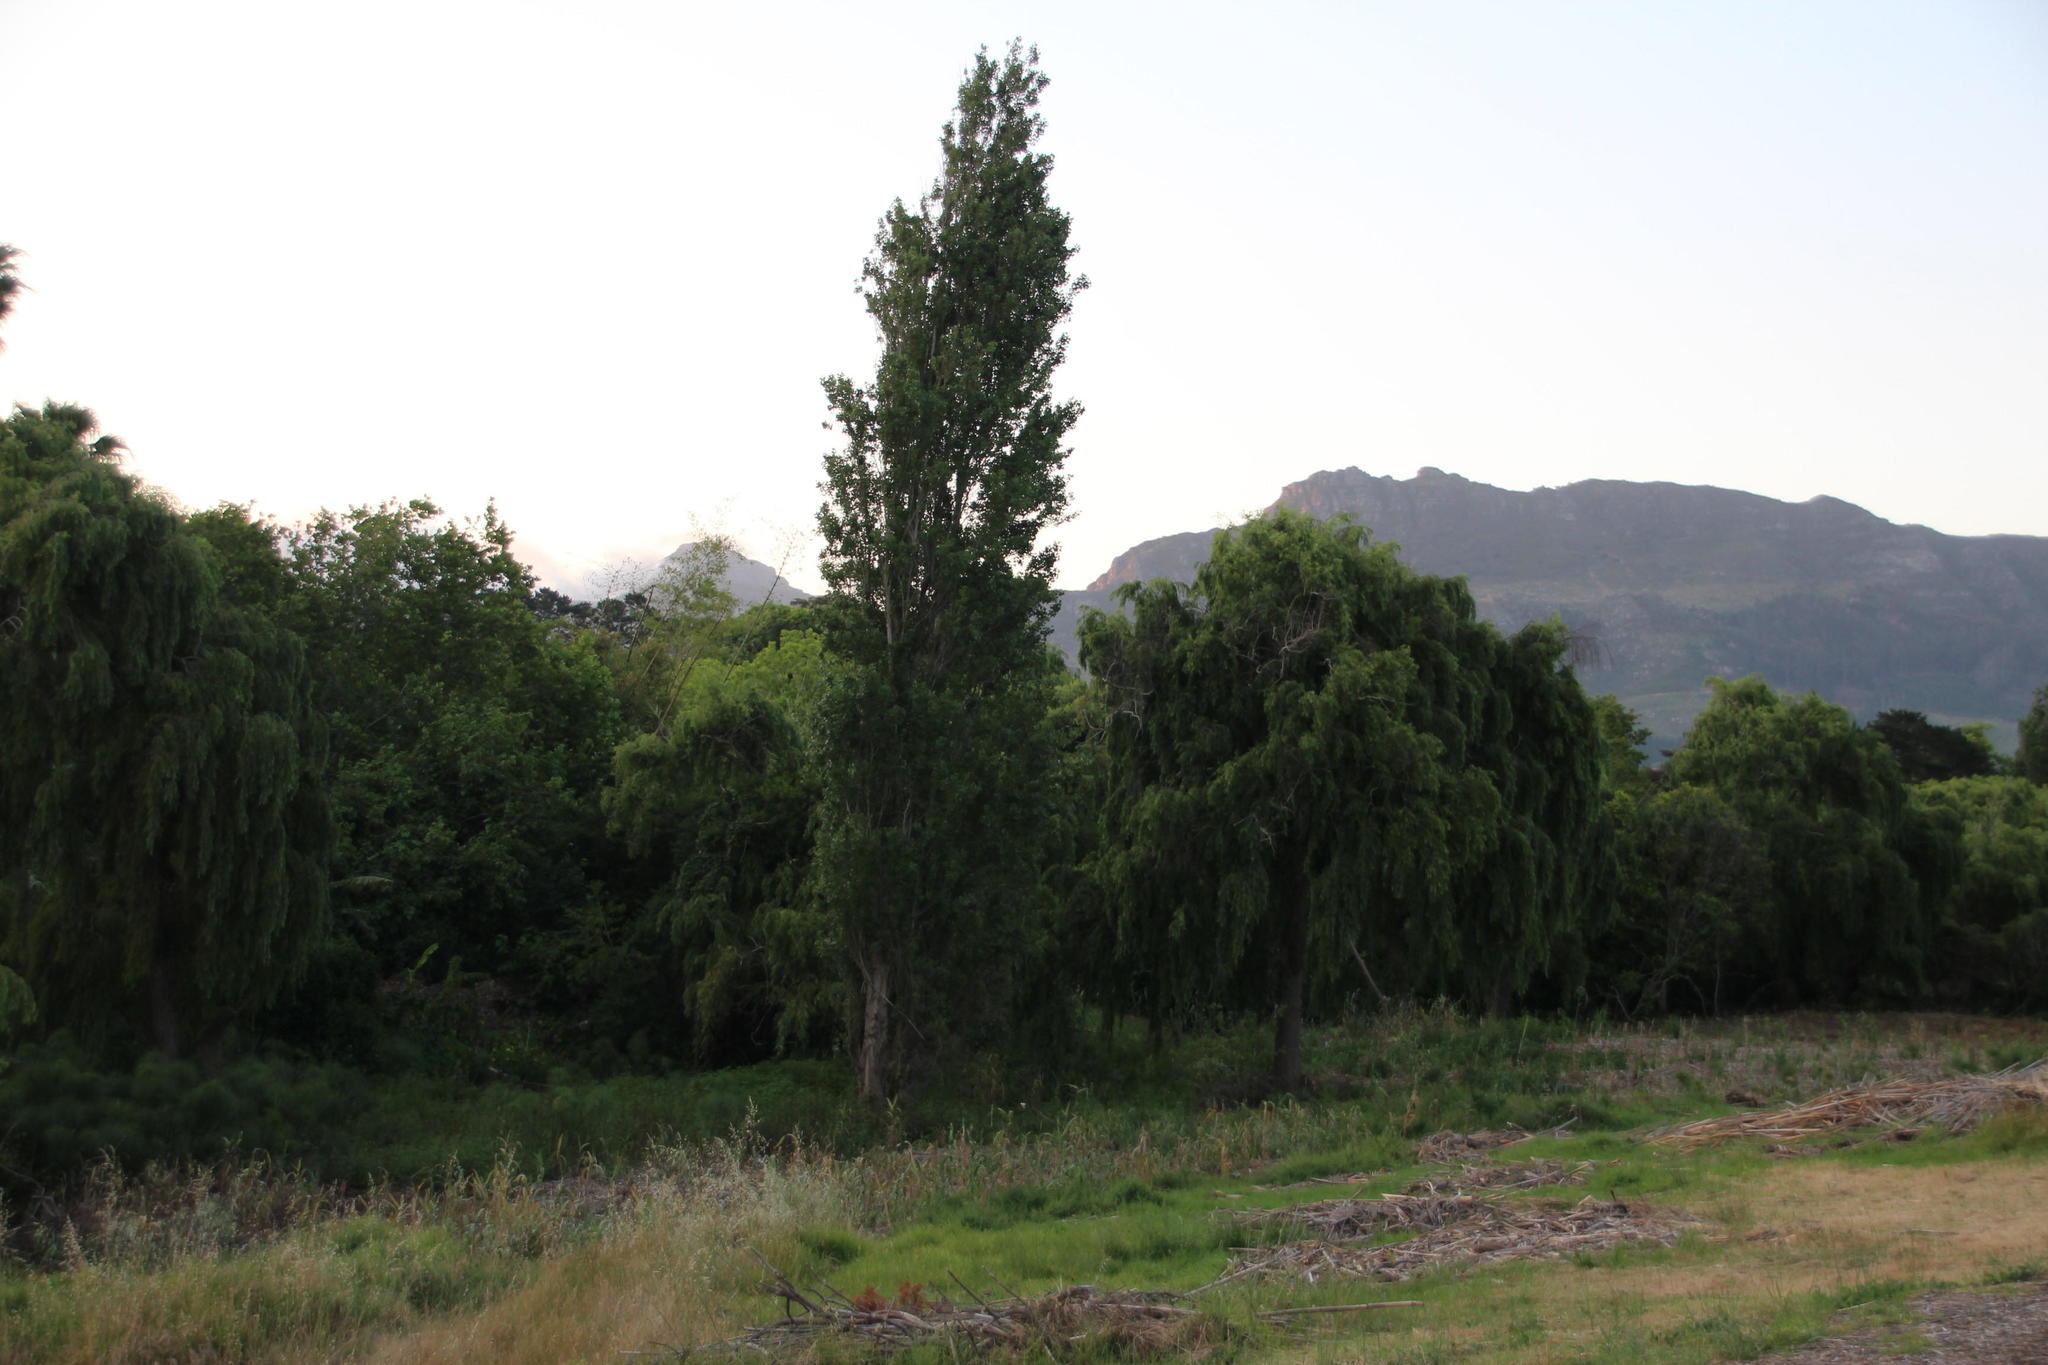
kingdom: Plantae
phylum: Tracheophyta
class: Magnoliopsida
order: Malpighiales
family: Salicaceae
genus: Populus
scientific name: Populus nigra
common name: Black poplar
